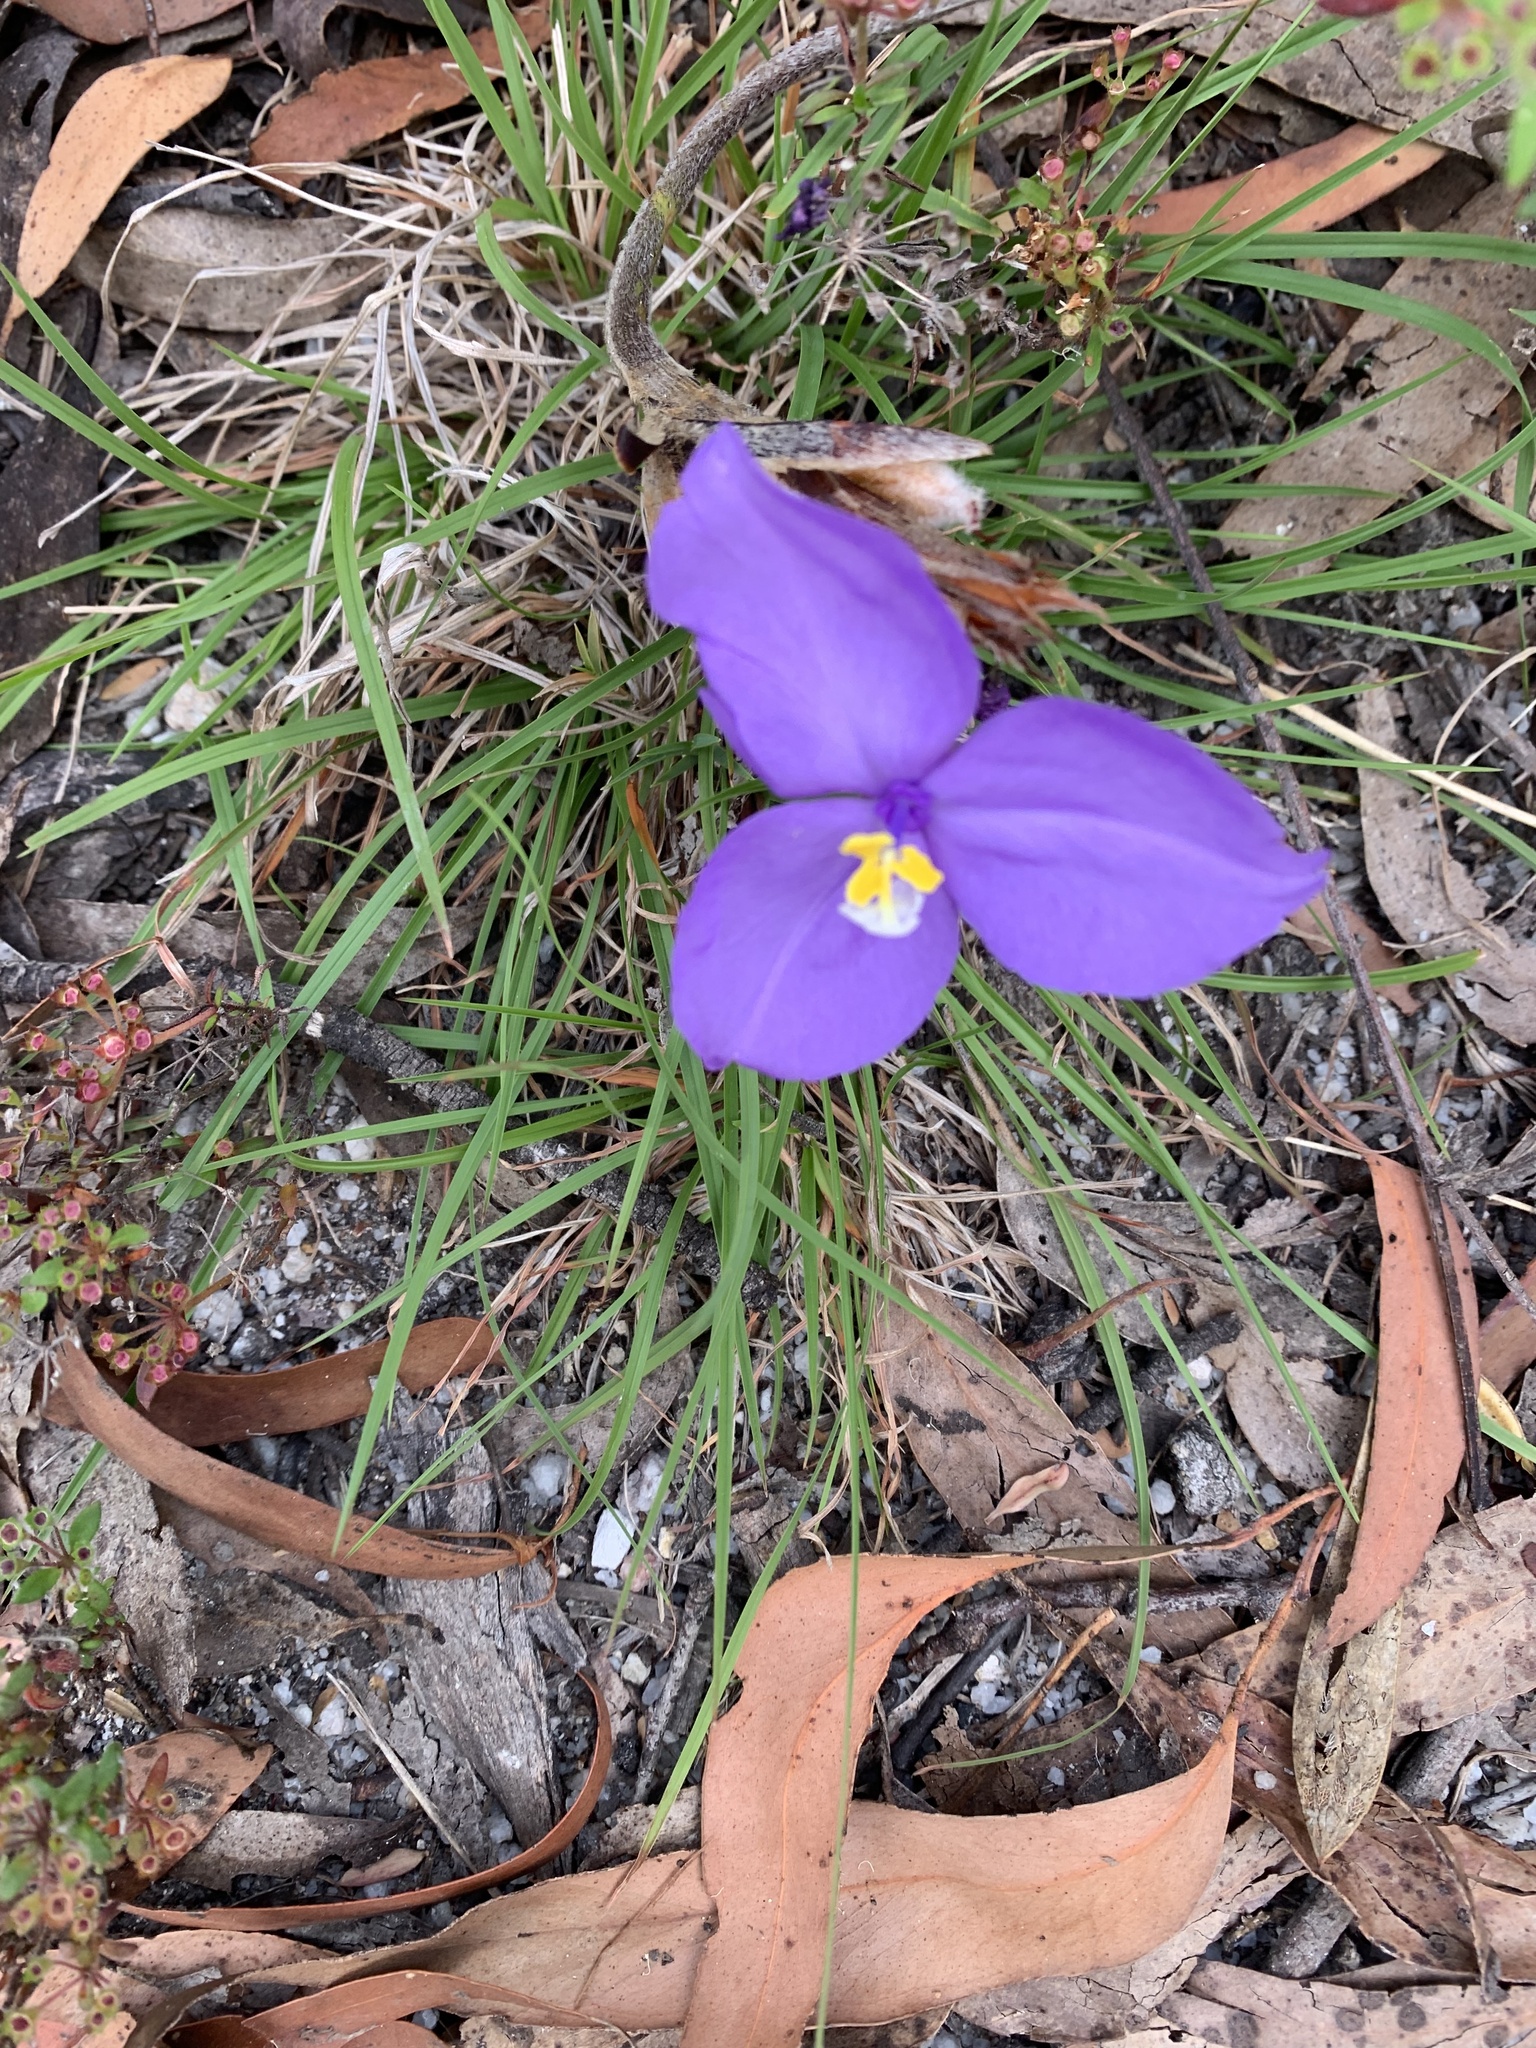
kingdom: Plantae
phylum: Tracheophyta
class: Liliopsida
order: Asparagales
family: Iridaceae
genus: Patersonia
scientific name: Patersonia sericea
